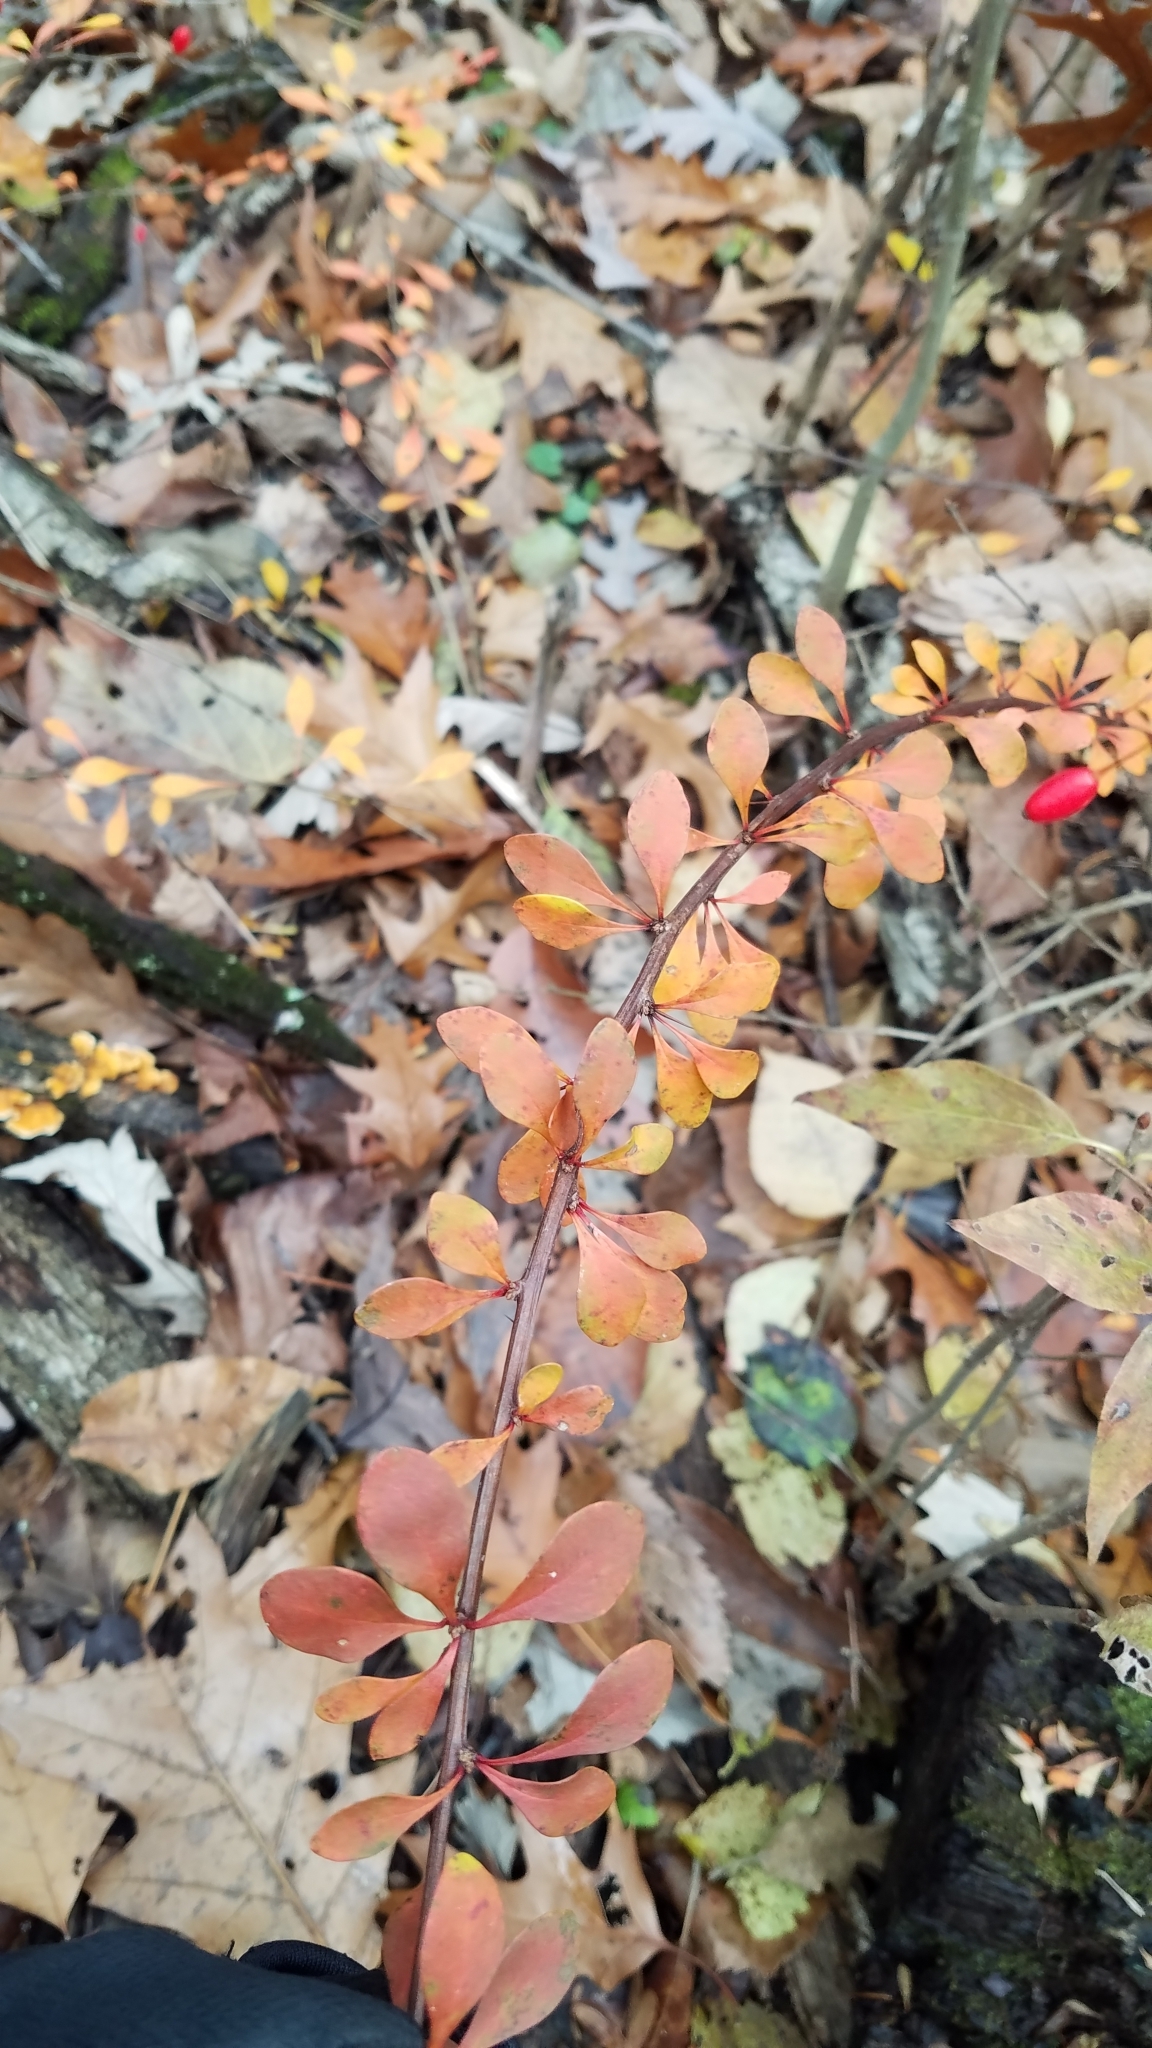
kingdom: Plantae
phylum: Tracheophyta
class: Magnoliopsida
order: Ranunculales
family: Berberidaceae
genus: Berberis
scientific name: Berberis thunbergii
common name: Japanese barberry
